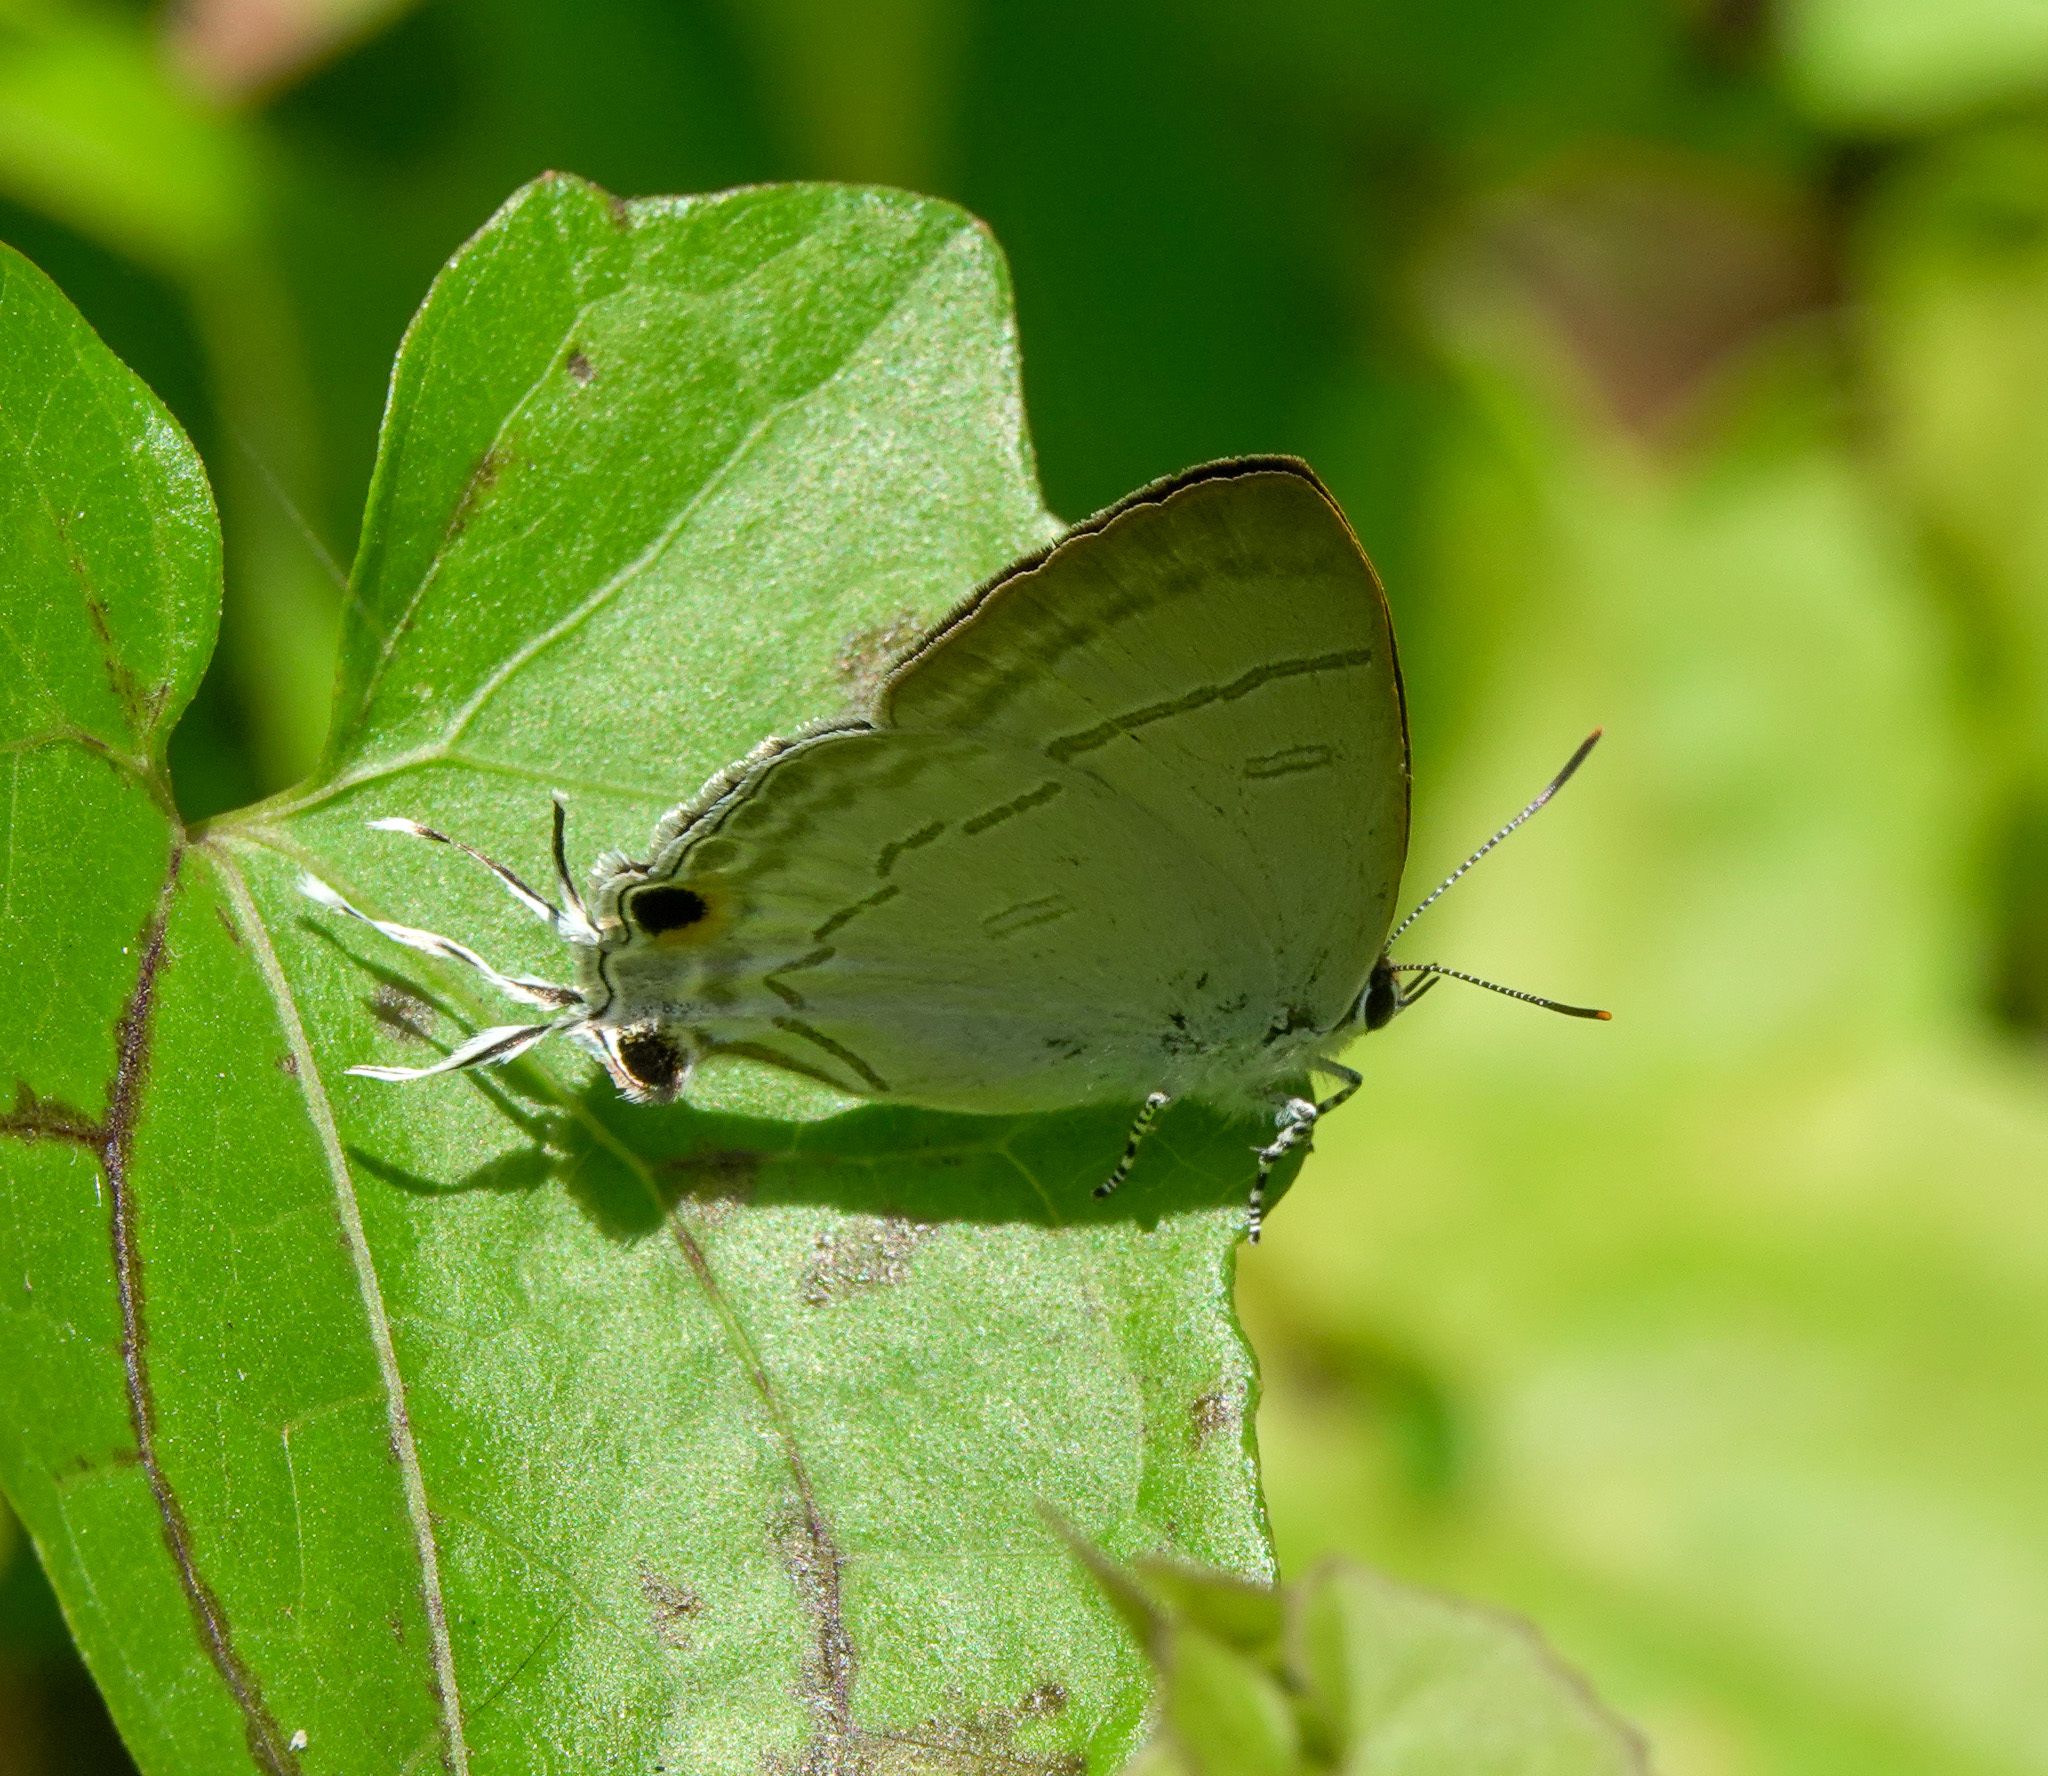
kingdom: Animalia
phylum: Arthropoda
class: Insecta
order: Lepidoptera
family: Lycaenidae
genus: Hypolycaena
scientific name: Hypolycaena erylus
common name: Common tit
